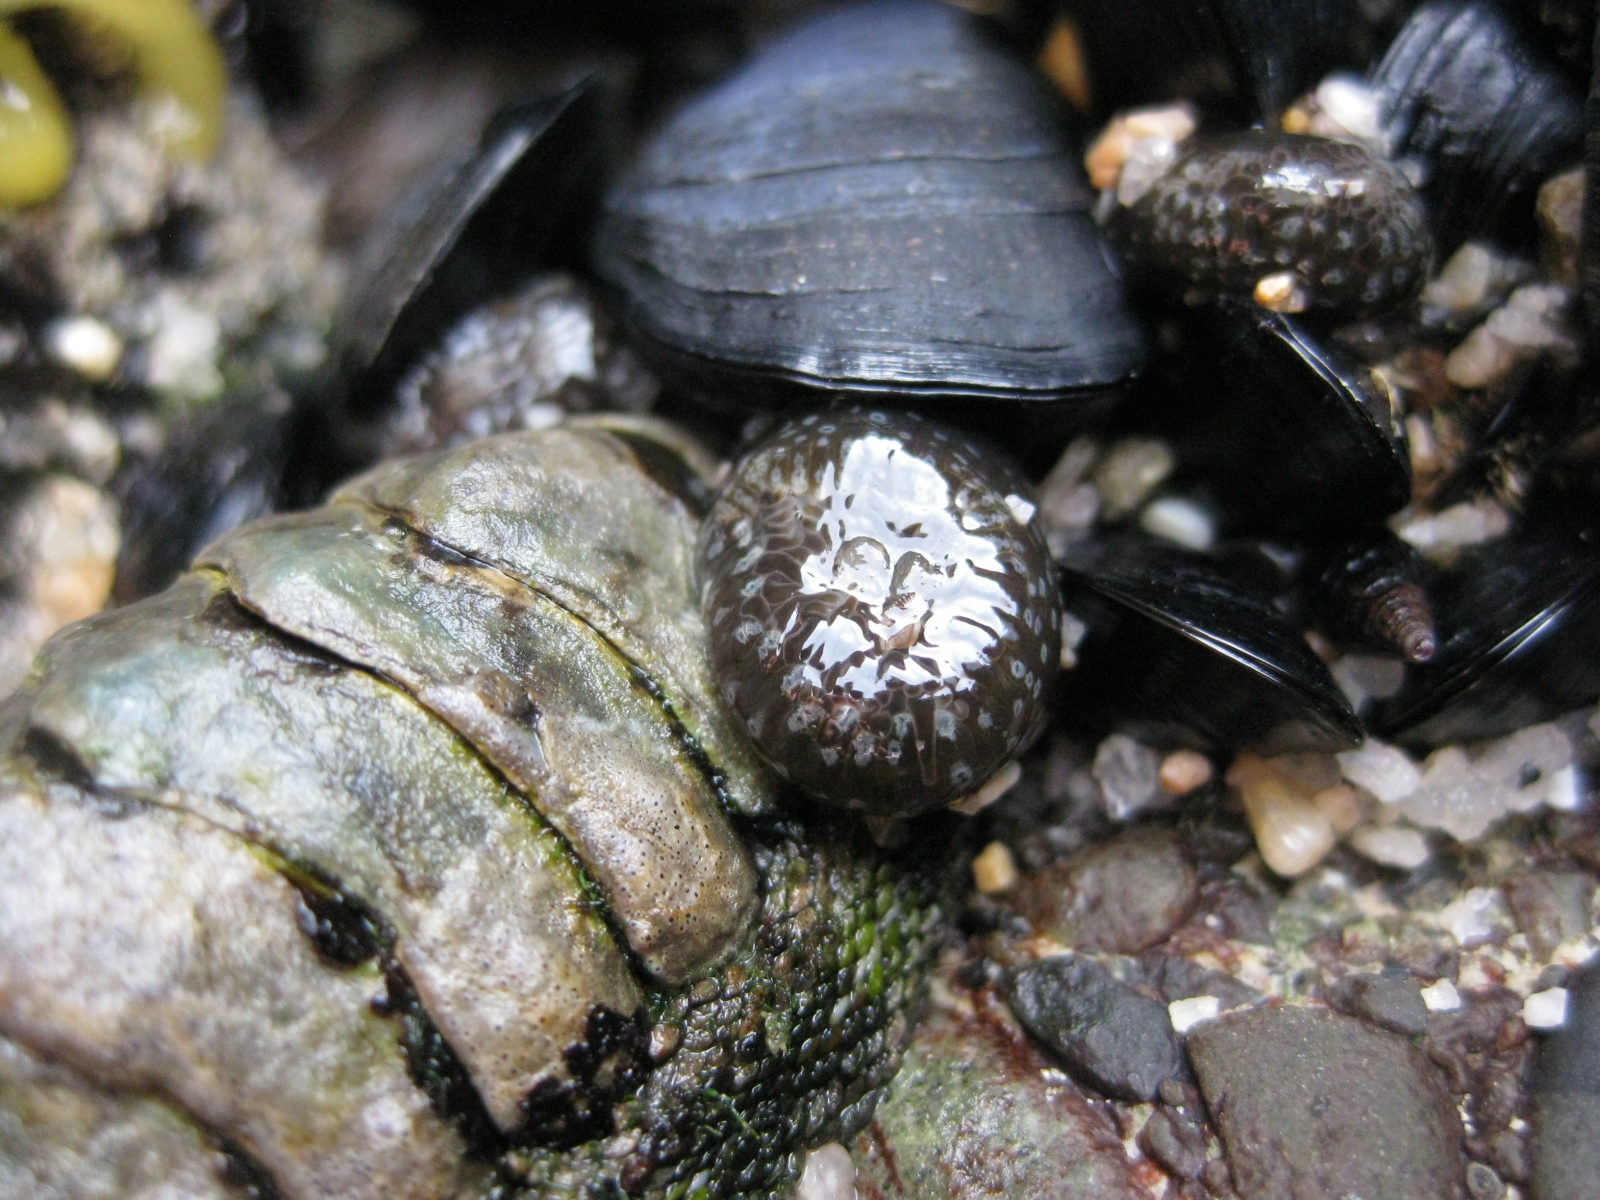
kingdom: Animalia
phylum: Cnidaria
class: Anthozoa
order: Actiniaria
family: Actiniidae
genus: Anthopleura
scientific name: Anthopleura hermaphroditica
